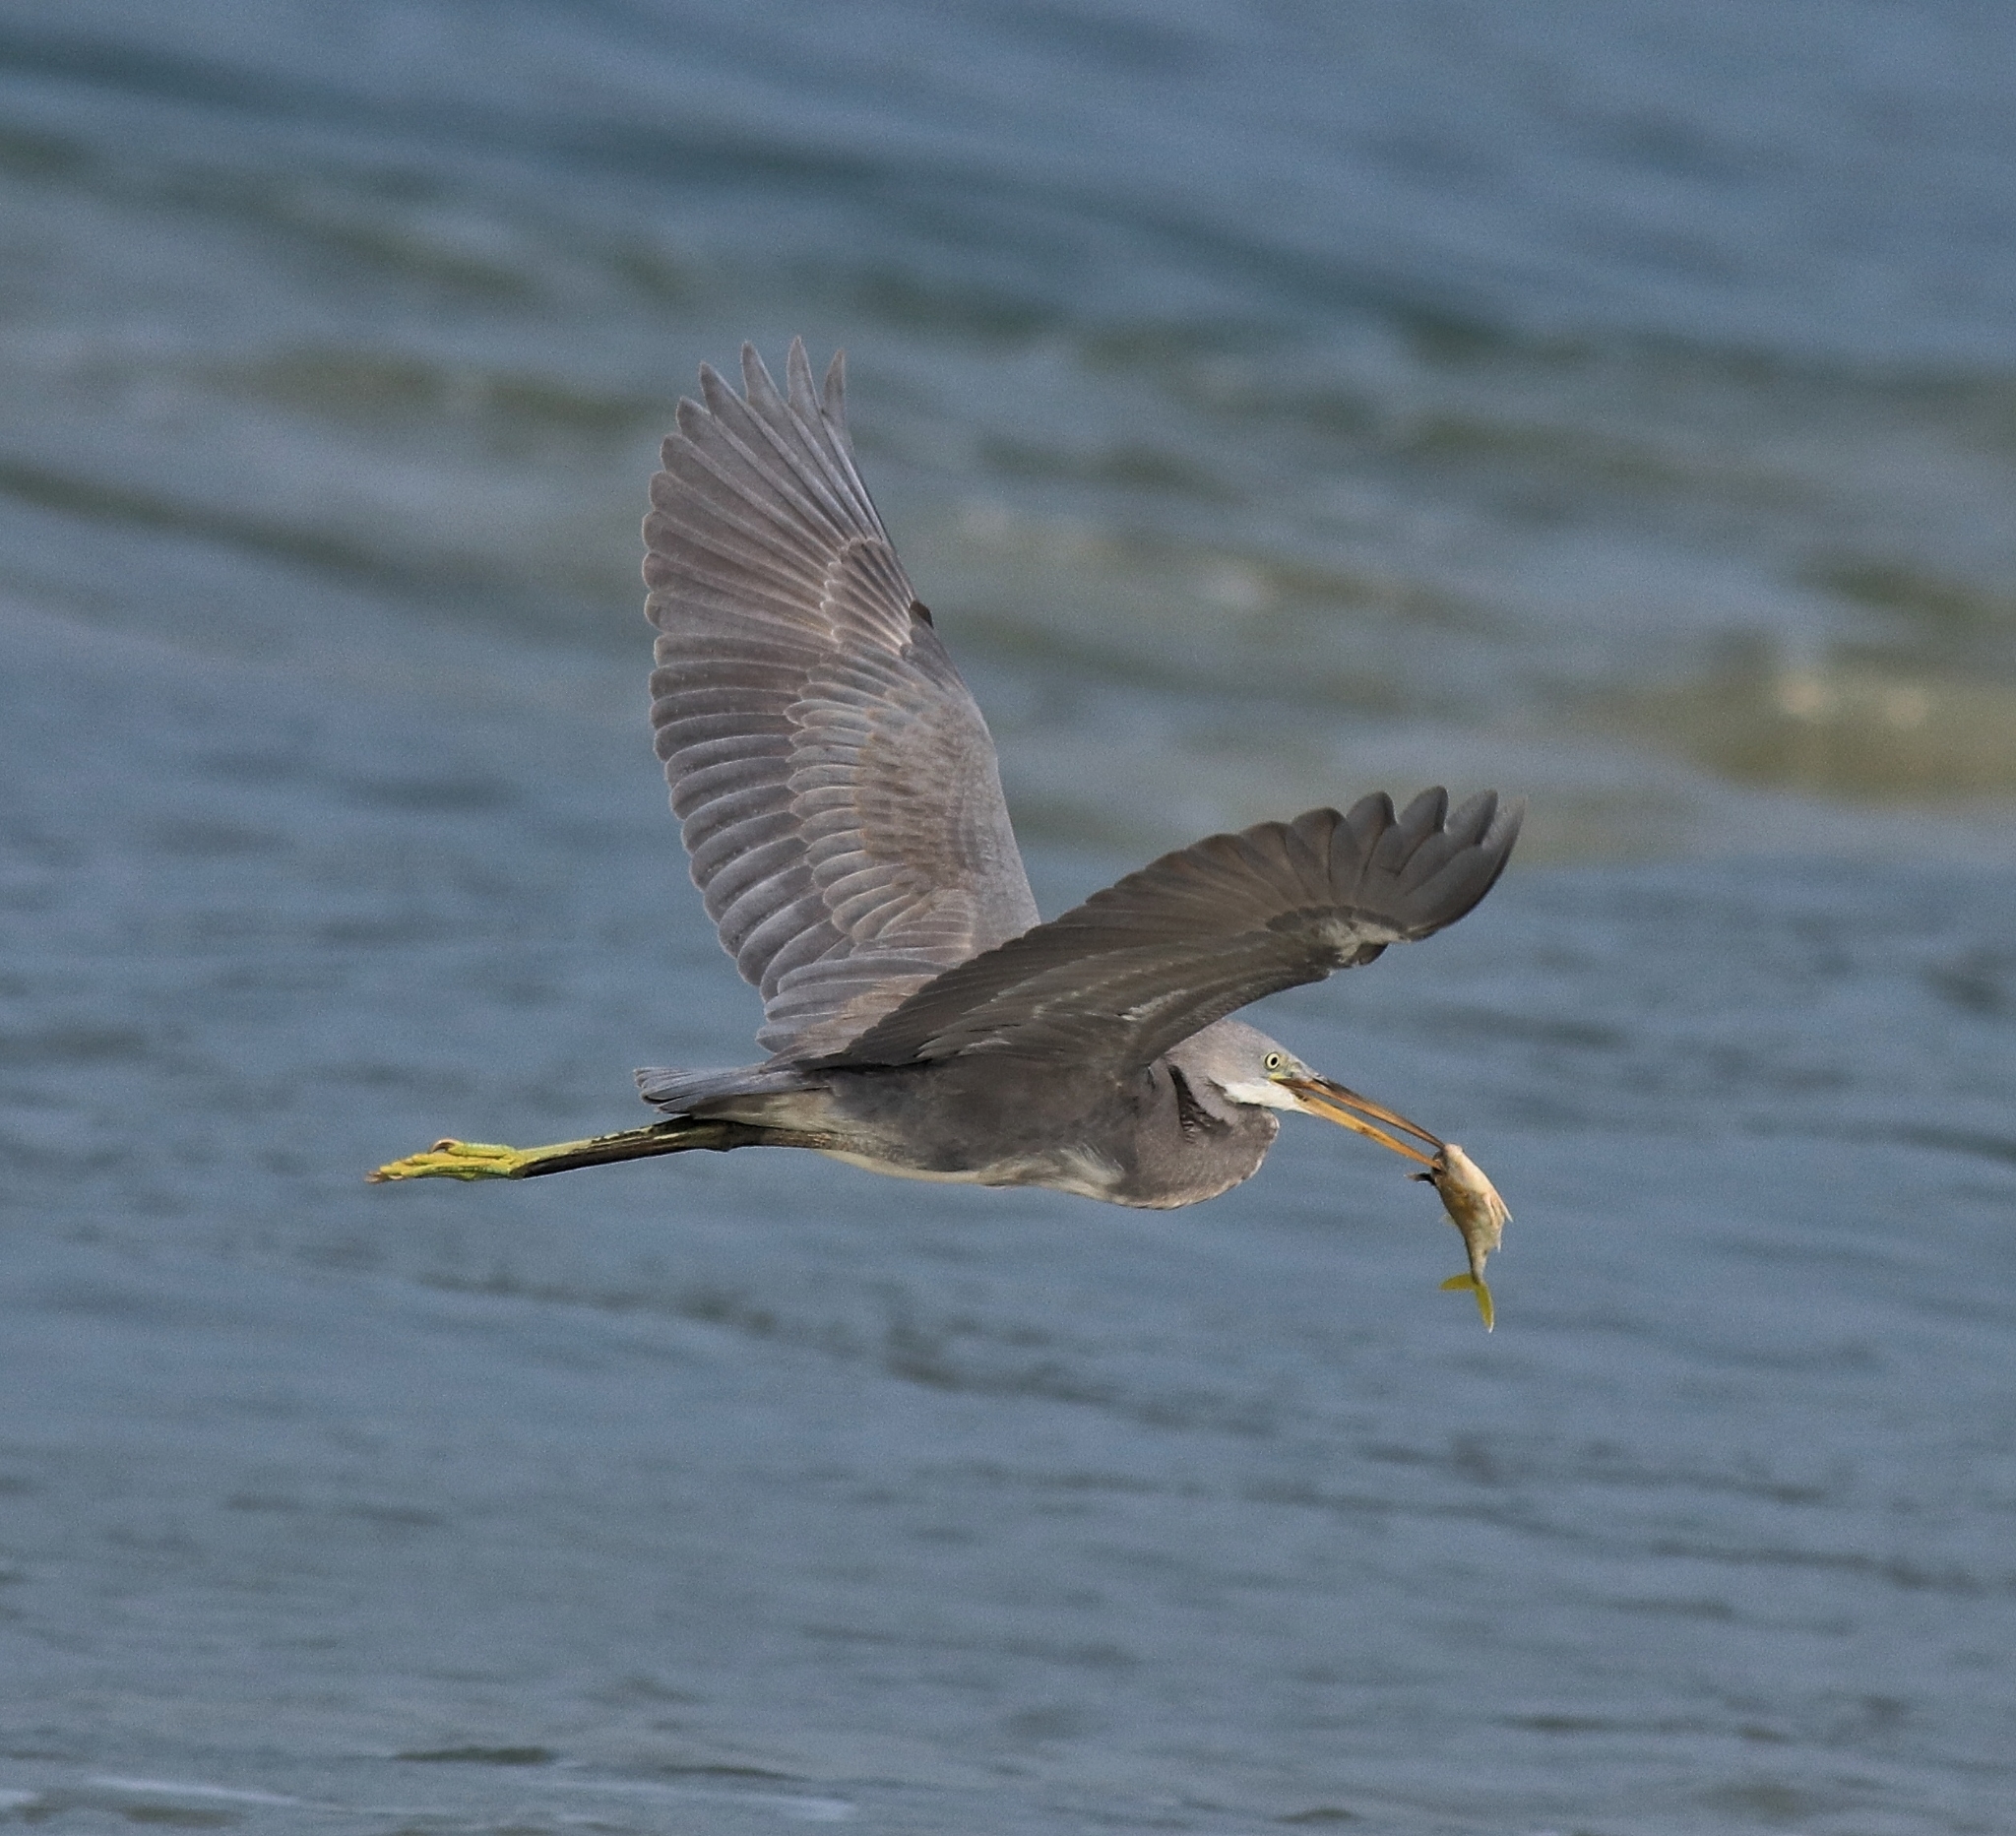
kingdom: Animalia
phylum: Chordata
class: Aves
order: Pelecaniformes
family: Ardeidae
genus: Egretta
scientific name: Egretta gularis
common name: Western reef-heron
